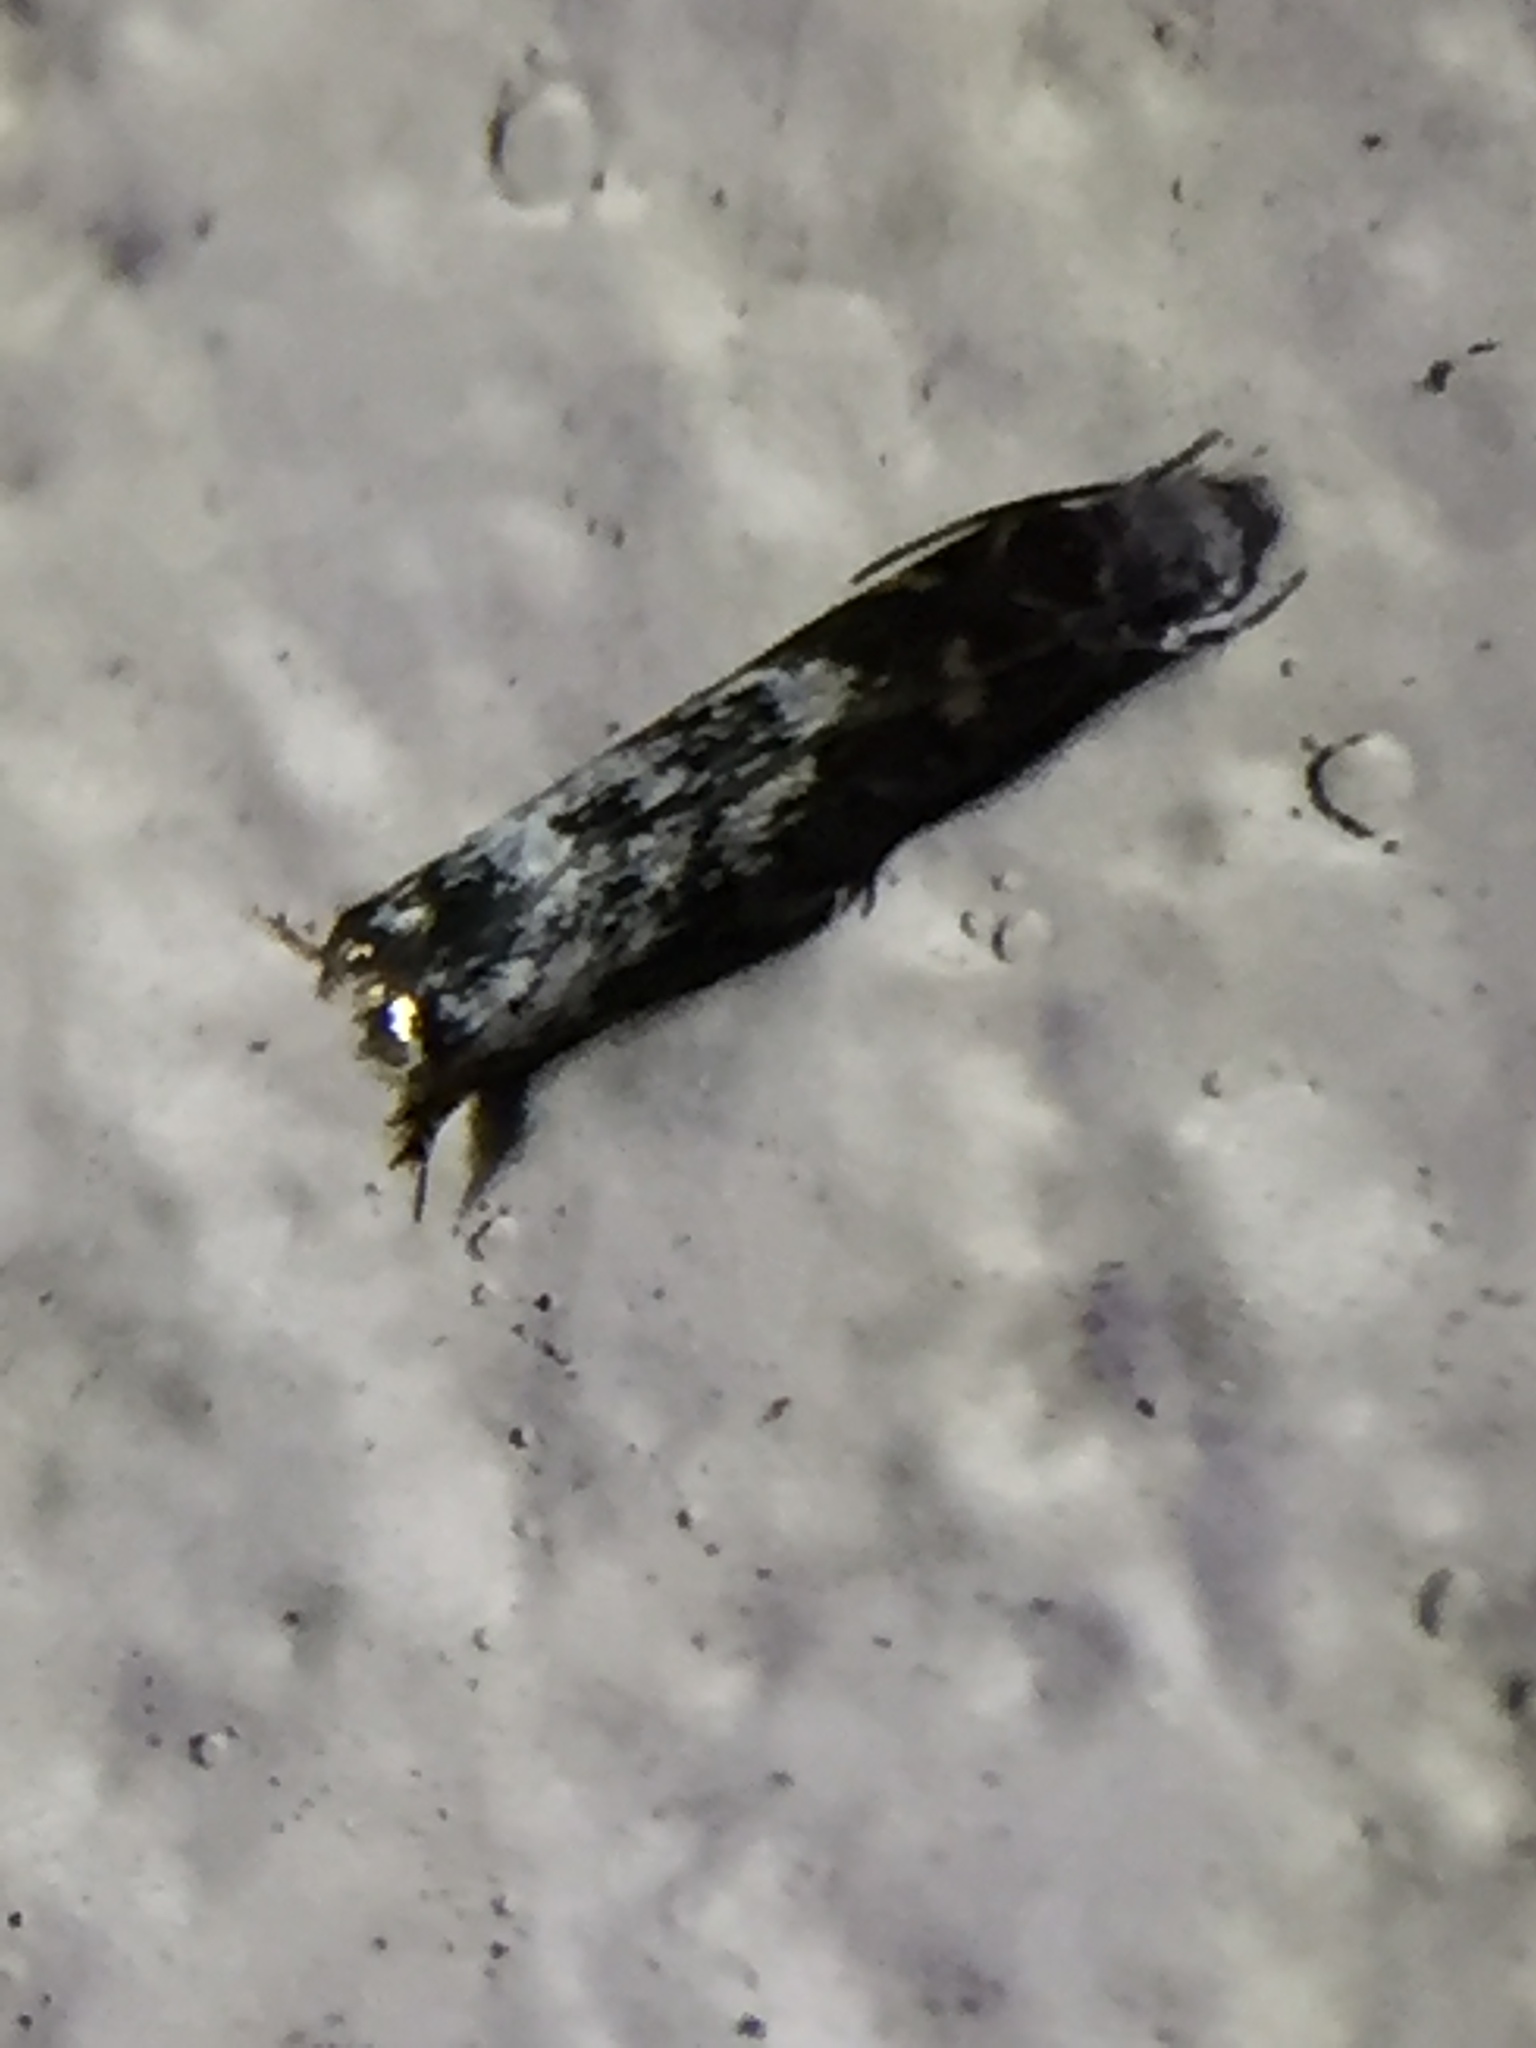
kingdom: Animalia
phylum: Arthropoda
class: Insecta
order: Lepidoptera
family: Tineidae
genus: Eugennaea
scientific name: Eugennaea
